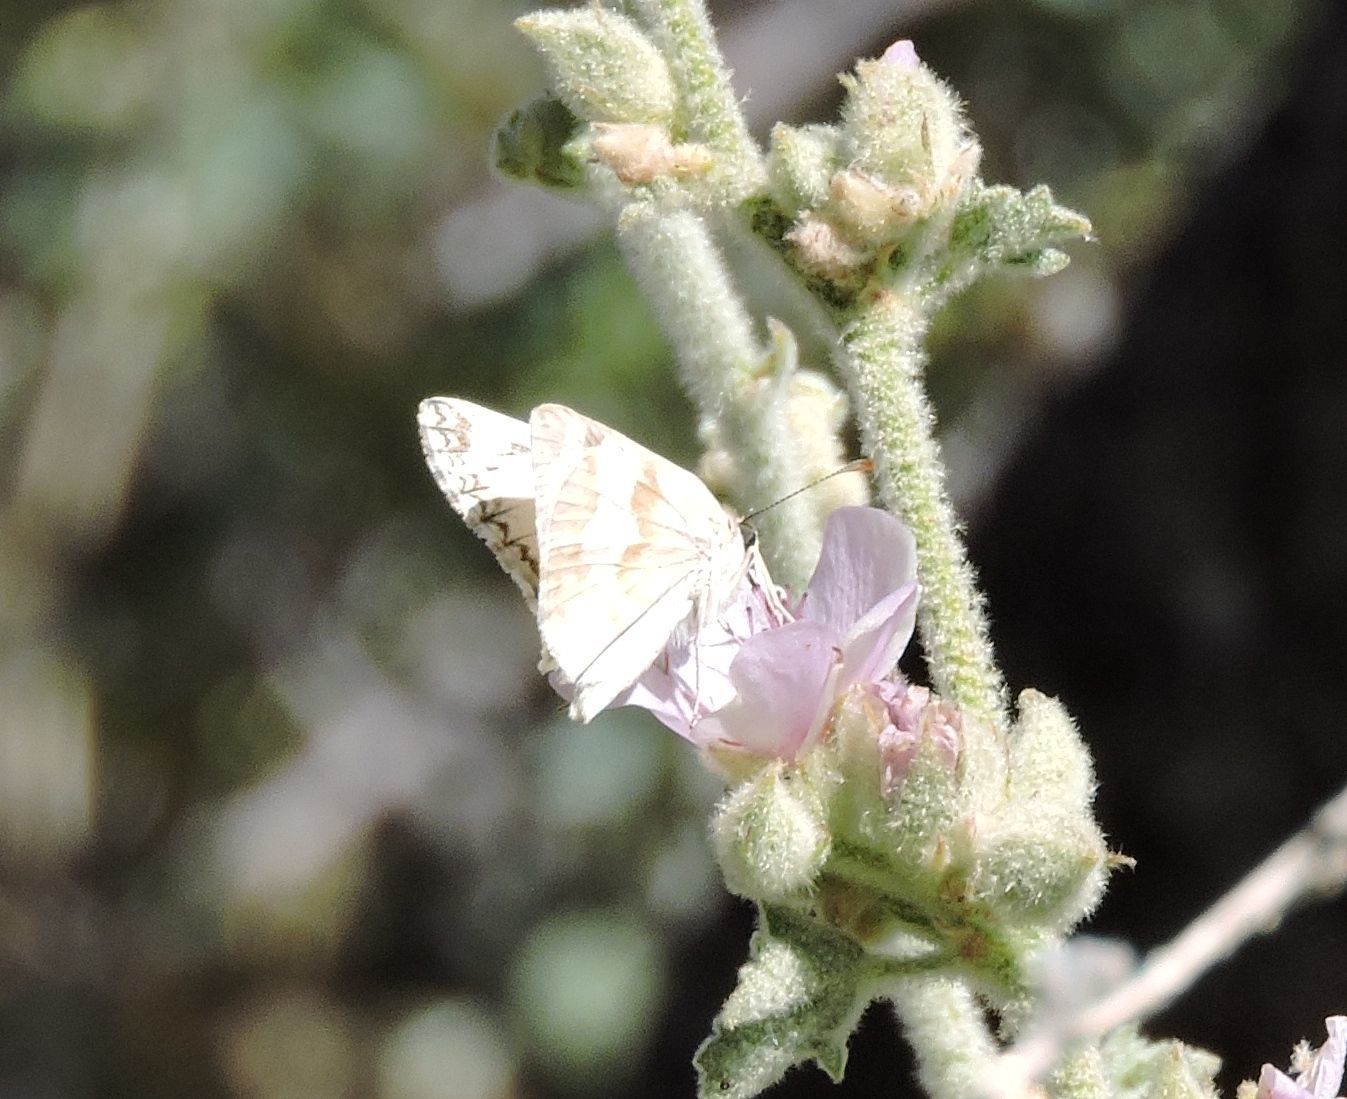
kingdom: Animalia
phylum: Arthropoda
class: Insecta
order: Lepidoptera
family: Hesperiidae
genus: Heliopetes
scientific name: Heliopetes ericetorum
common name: Northern white-skipper
